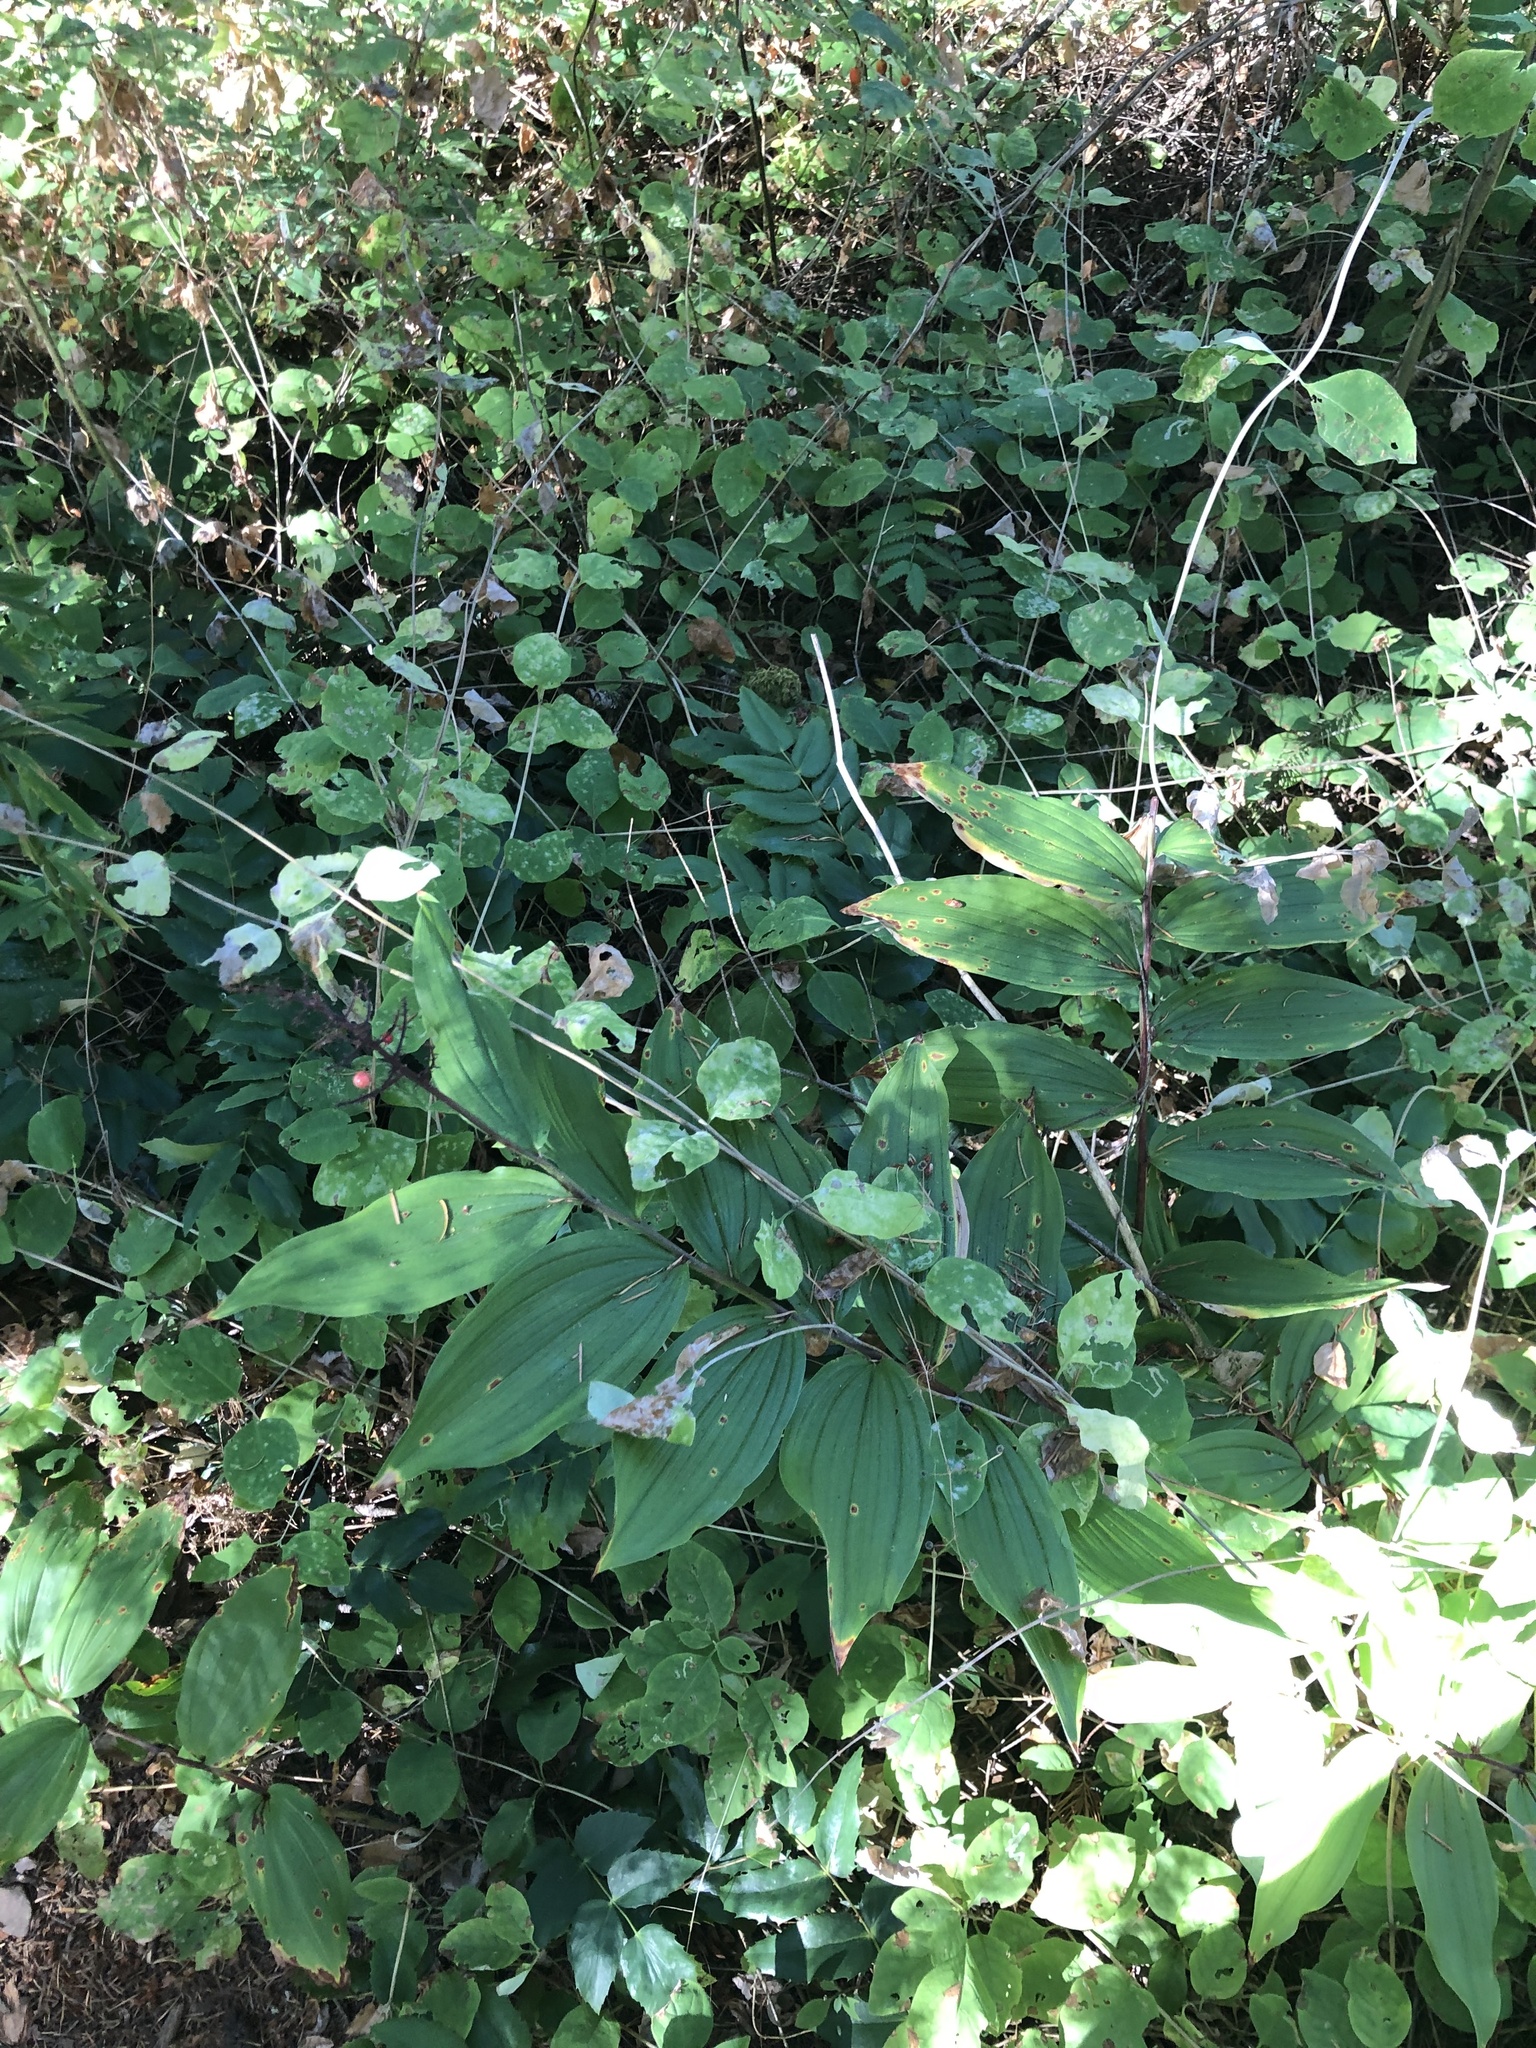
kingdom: Plantae
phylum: Tracheophyta
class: Liliopsida
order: Asparagales
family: Asparagaceae
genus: Maianthemum
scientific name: Maianthemum racemosum
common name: False spikenard
